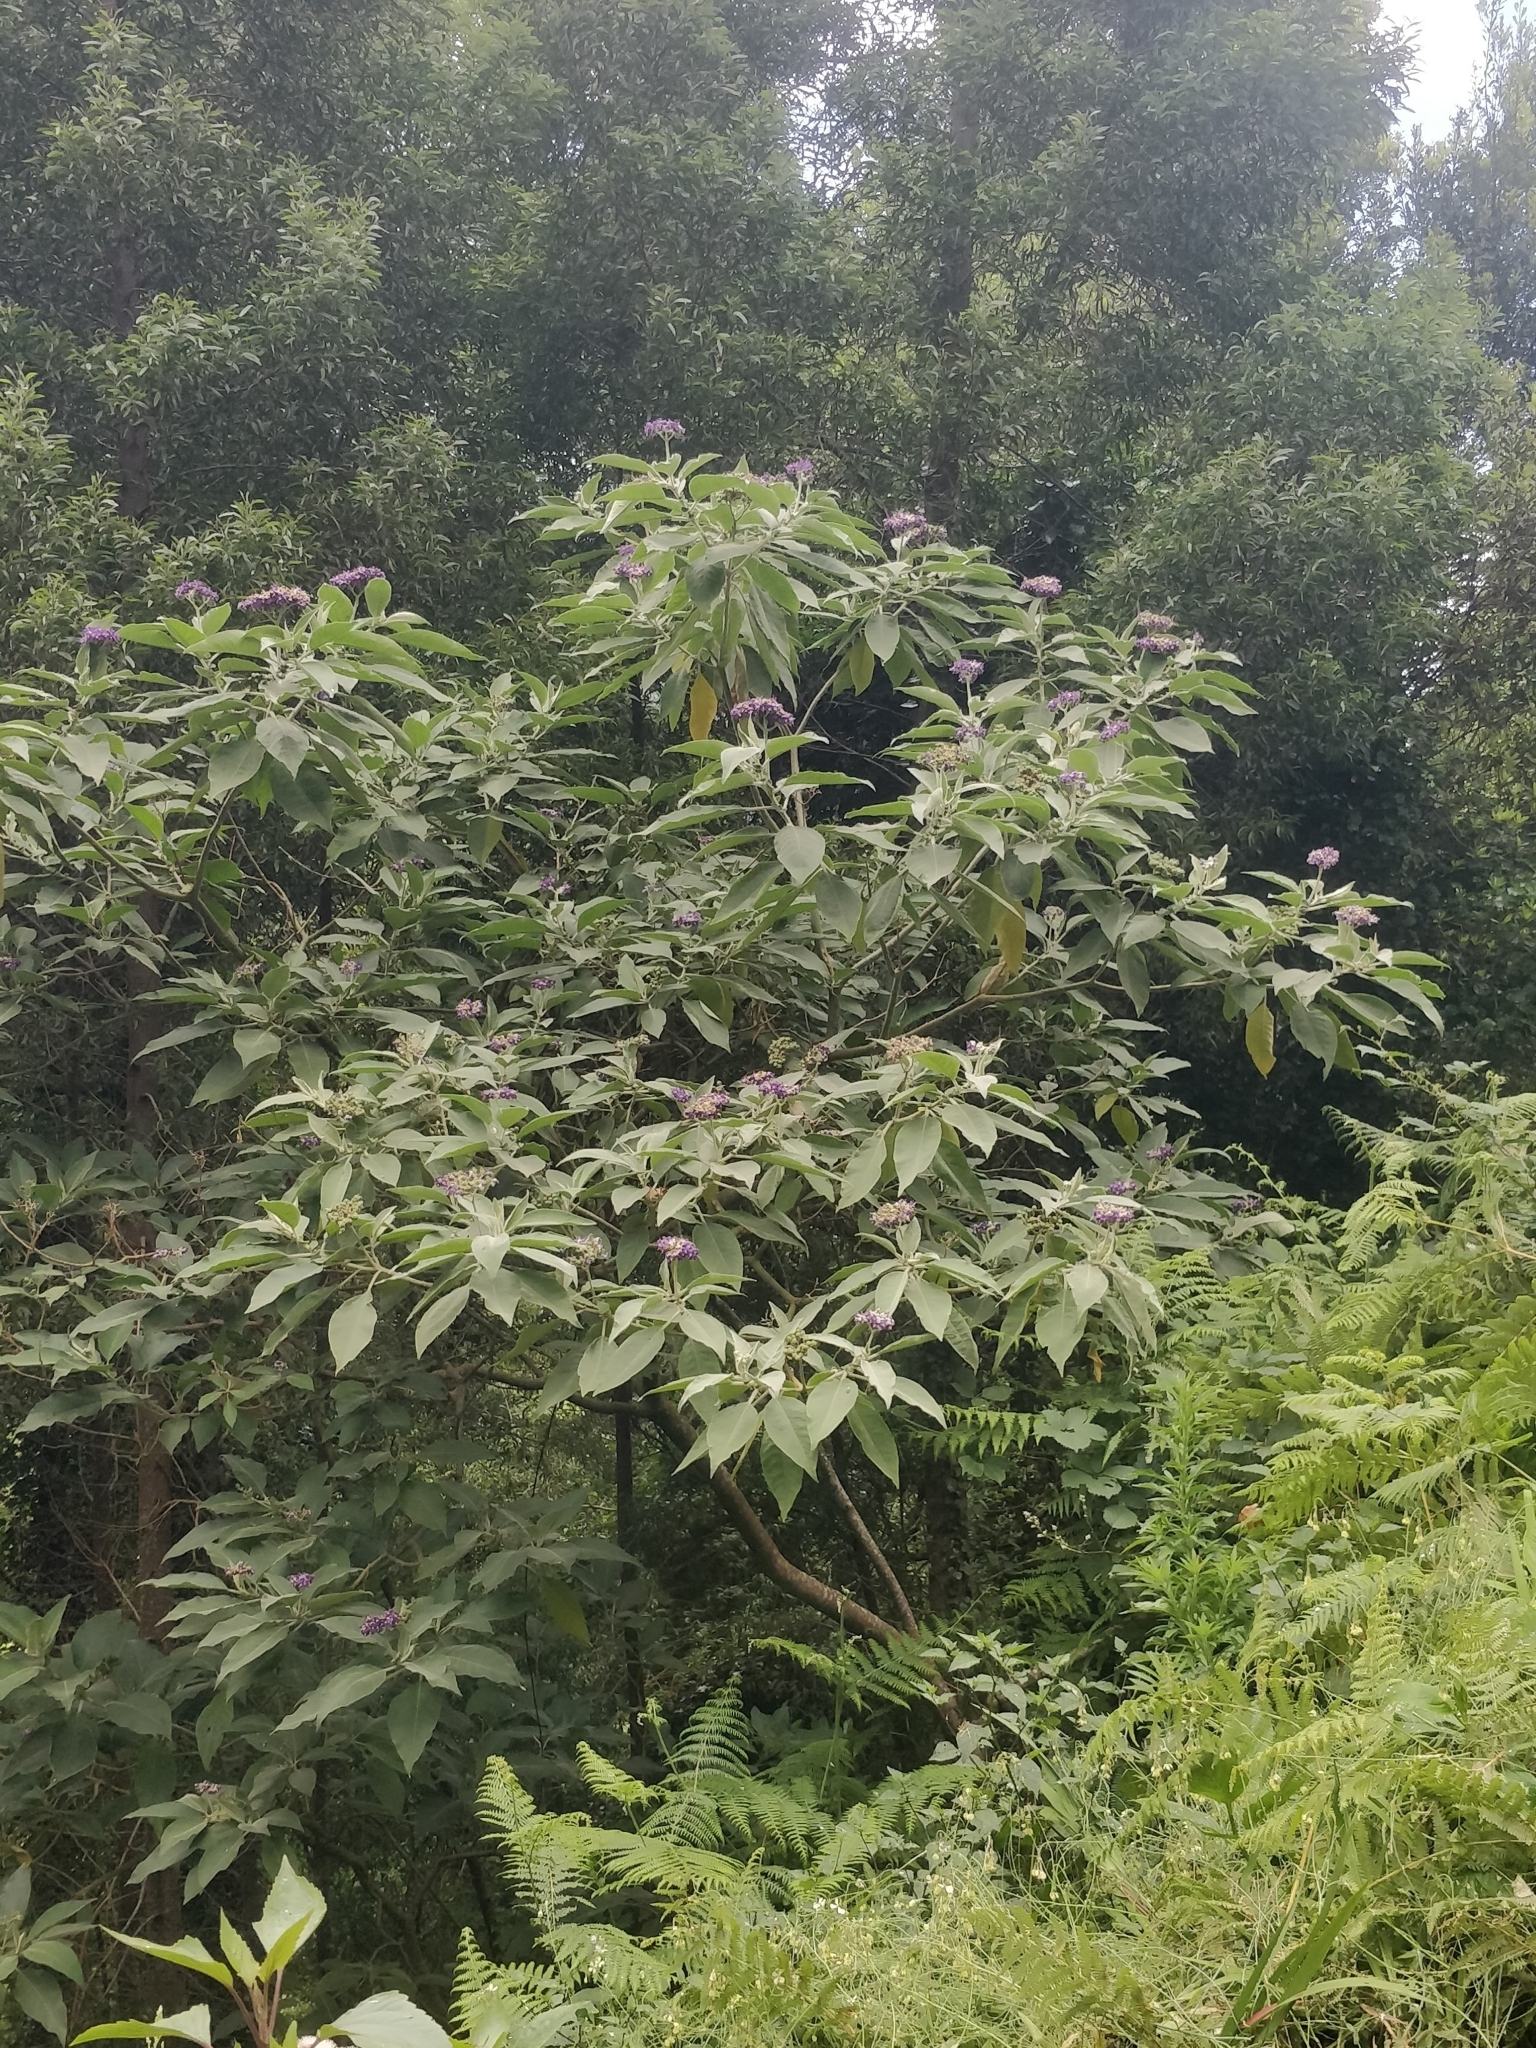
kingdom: Plantae
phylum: Tracheophyta
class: Magnoliopsida
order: Solanales
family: Solanaceae
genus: Solanum
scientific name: Solanum mauritianum
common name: Earleaf nightshade
